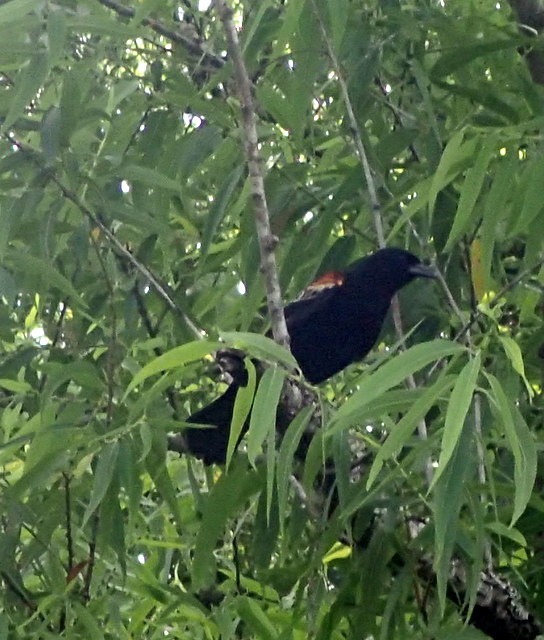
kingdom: Animalia
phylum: Chordata
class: Aves
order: Passeriformes
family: Icteridae
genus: Agelaius
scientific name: Agelaius phoeniceus
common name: Red-winged blackbird
